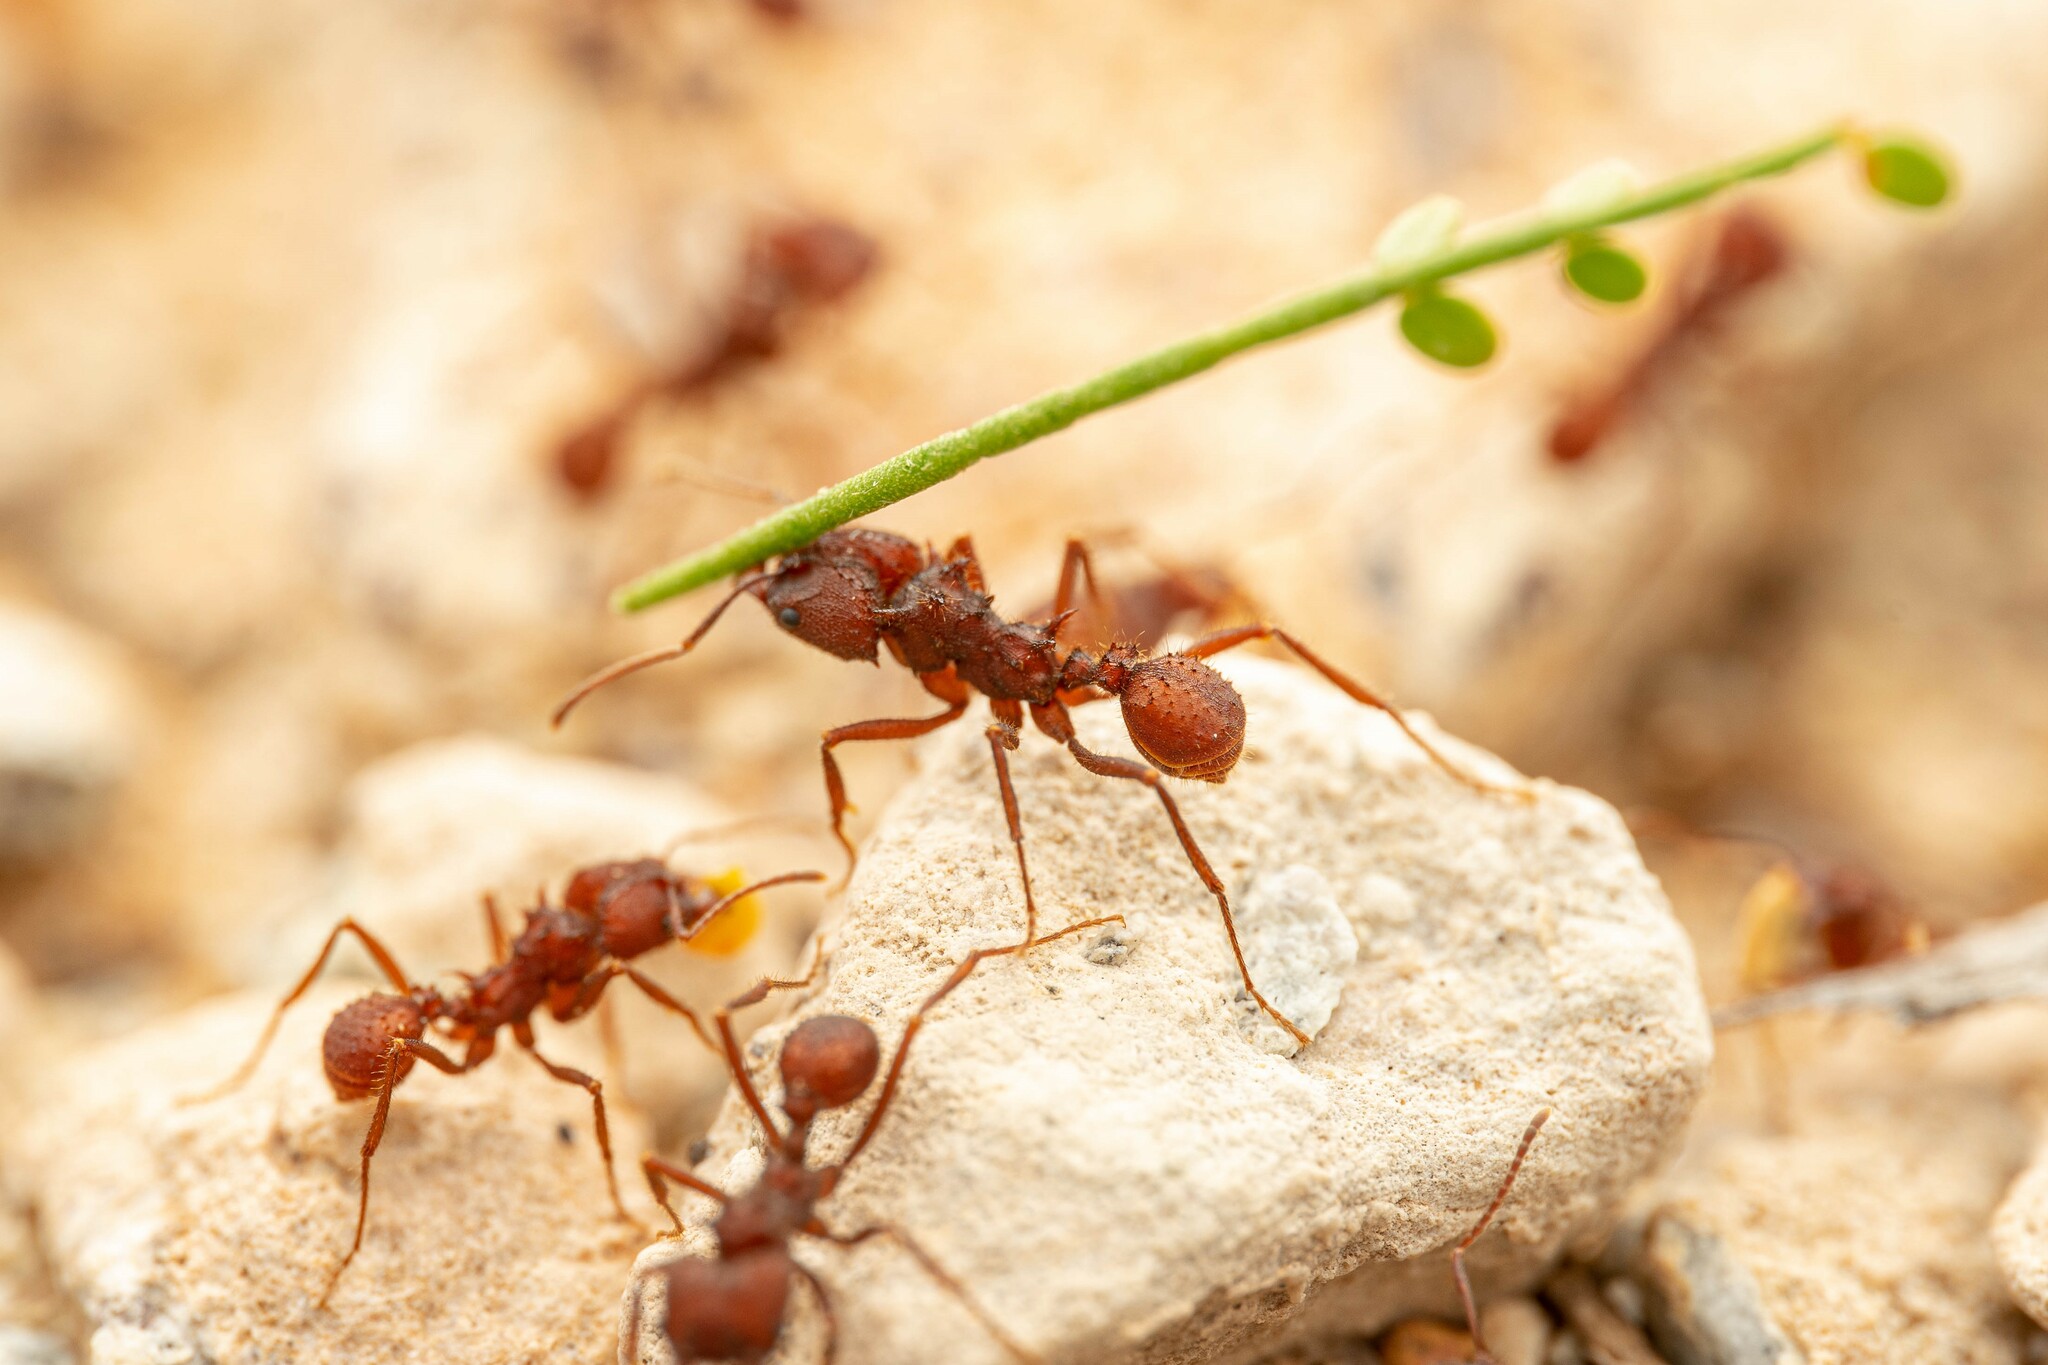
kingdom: Animalia
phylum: Arthropoda
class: Insecta
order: Hymenoptera
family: Formicidae
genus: Acromyrmex
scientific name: Acromyrmex versicolor
